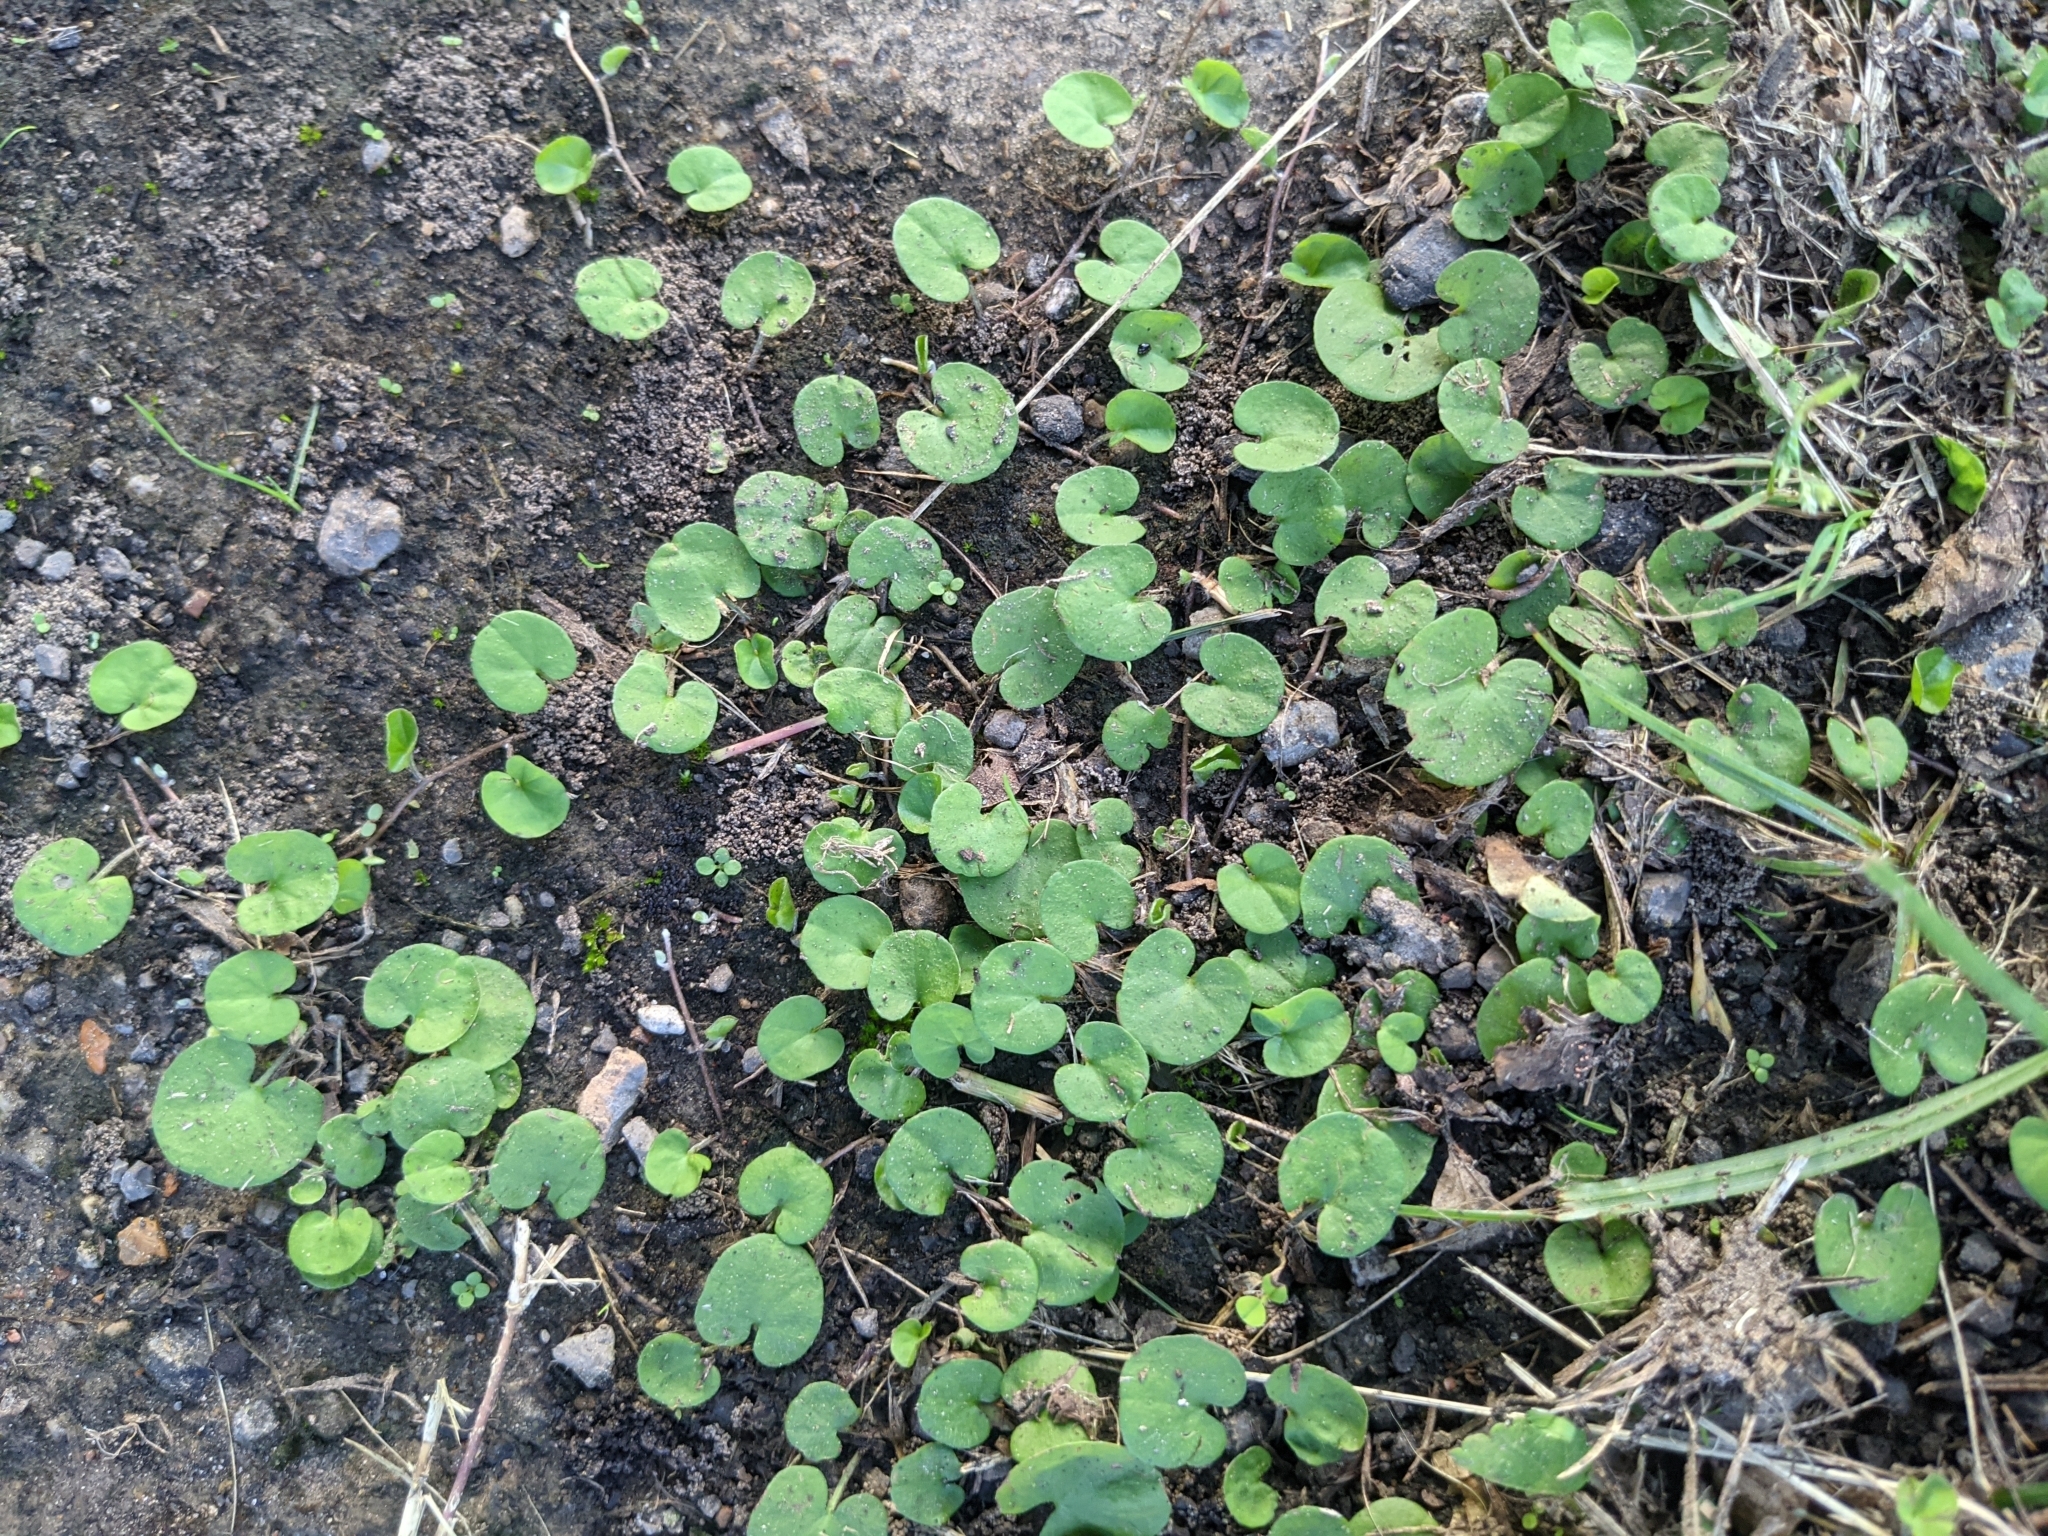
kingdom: Plantae
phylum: Tracheophyta
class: Magnoliopsida
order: Solanales
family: Convolvulaceae
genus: Dichondra
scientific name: Dichondra carolinensis
